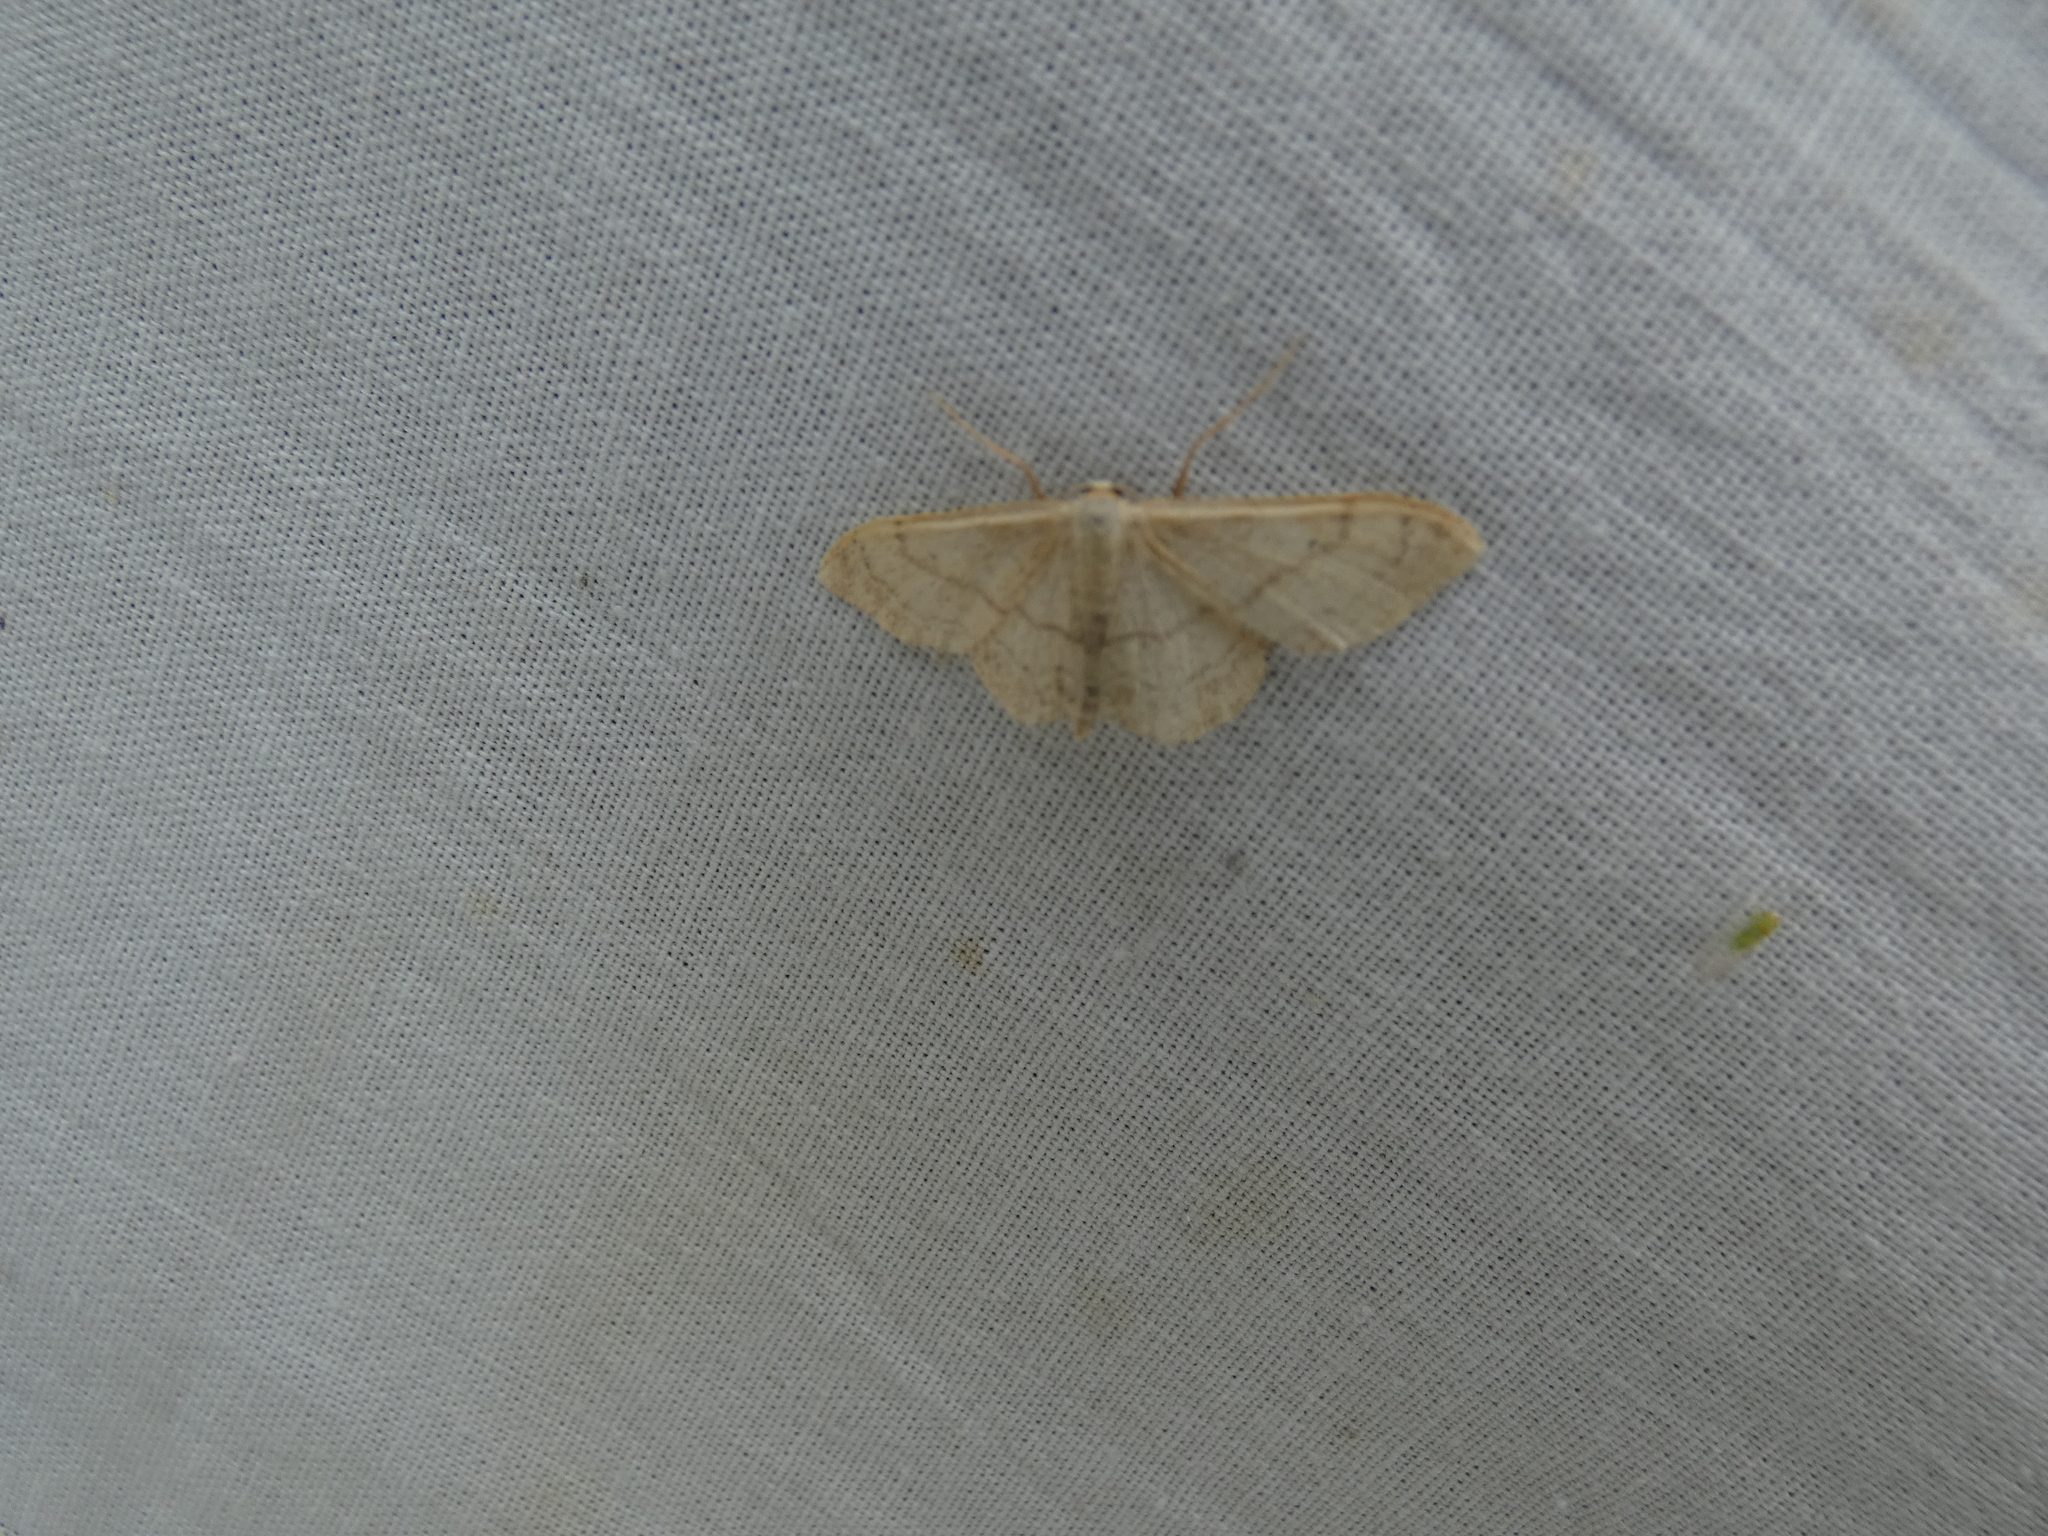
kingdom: Animalia
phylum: Arthropoda
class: Insecta
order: Lepidoptera
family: Geometridae
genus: Idaea
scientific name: Idaea aversata
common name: Riband wave
